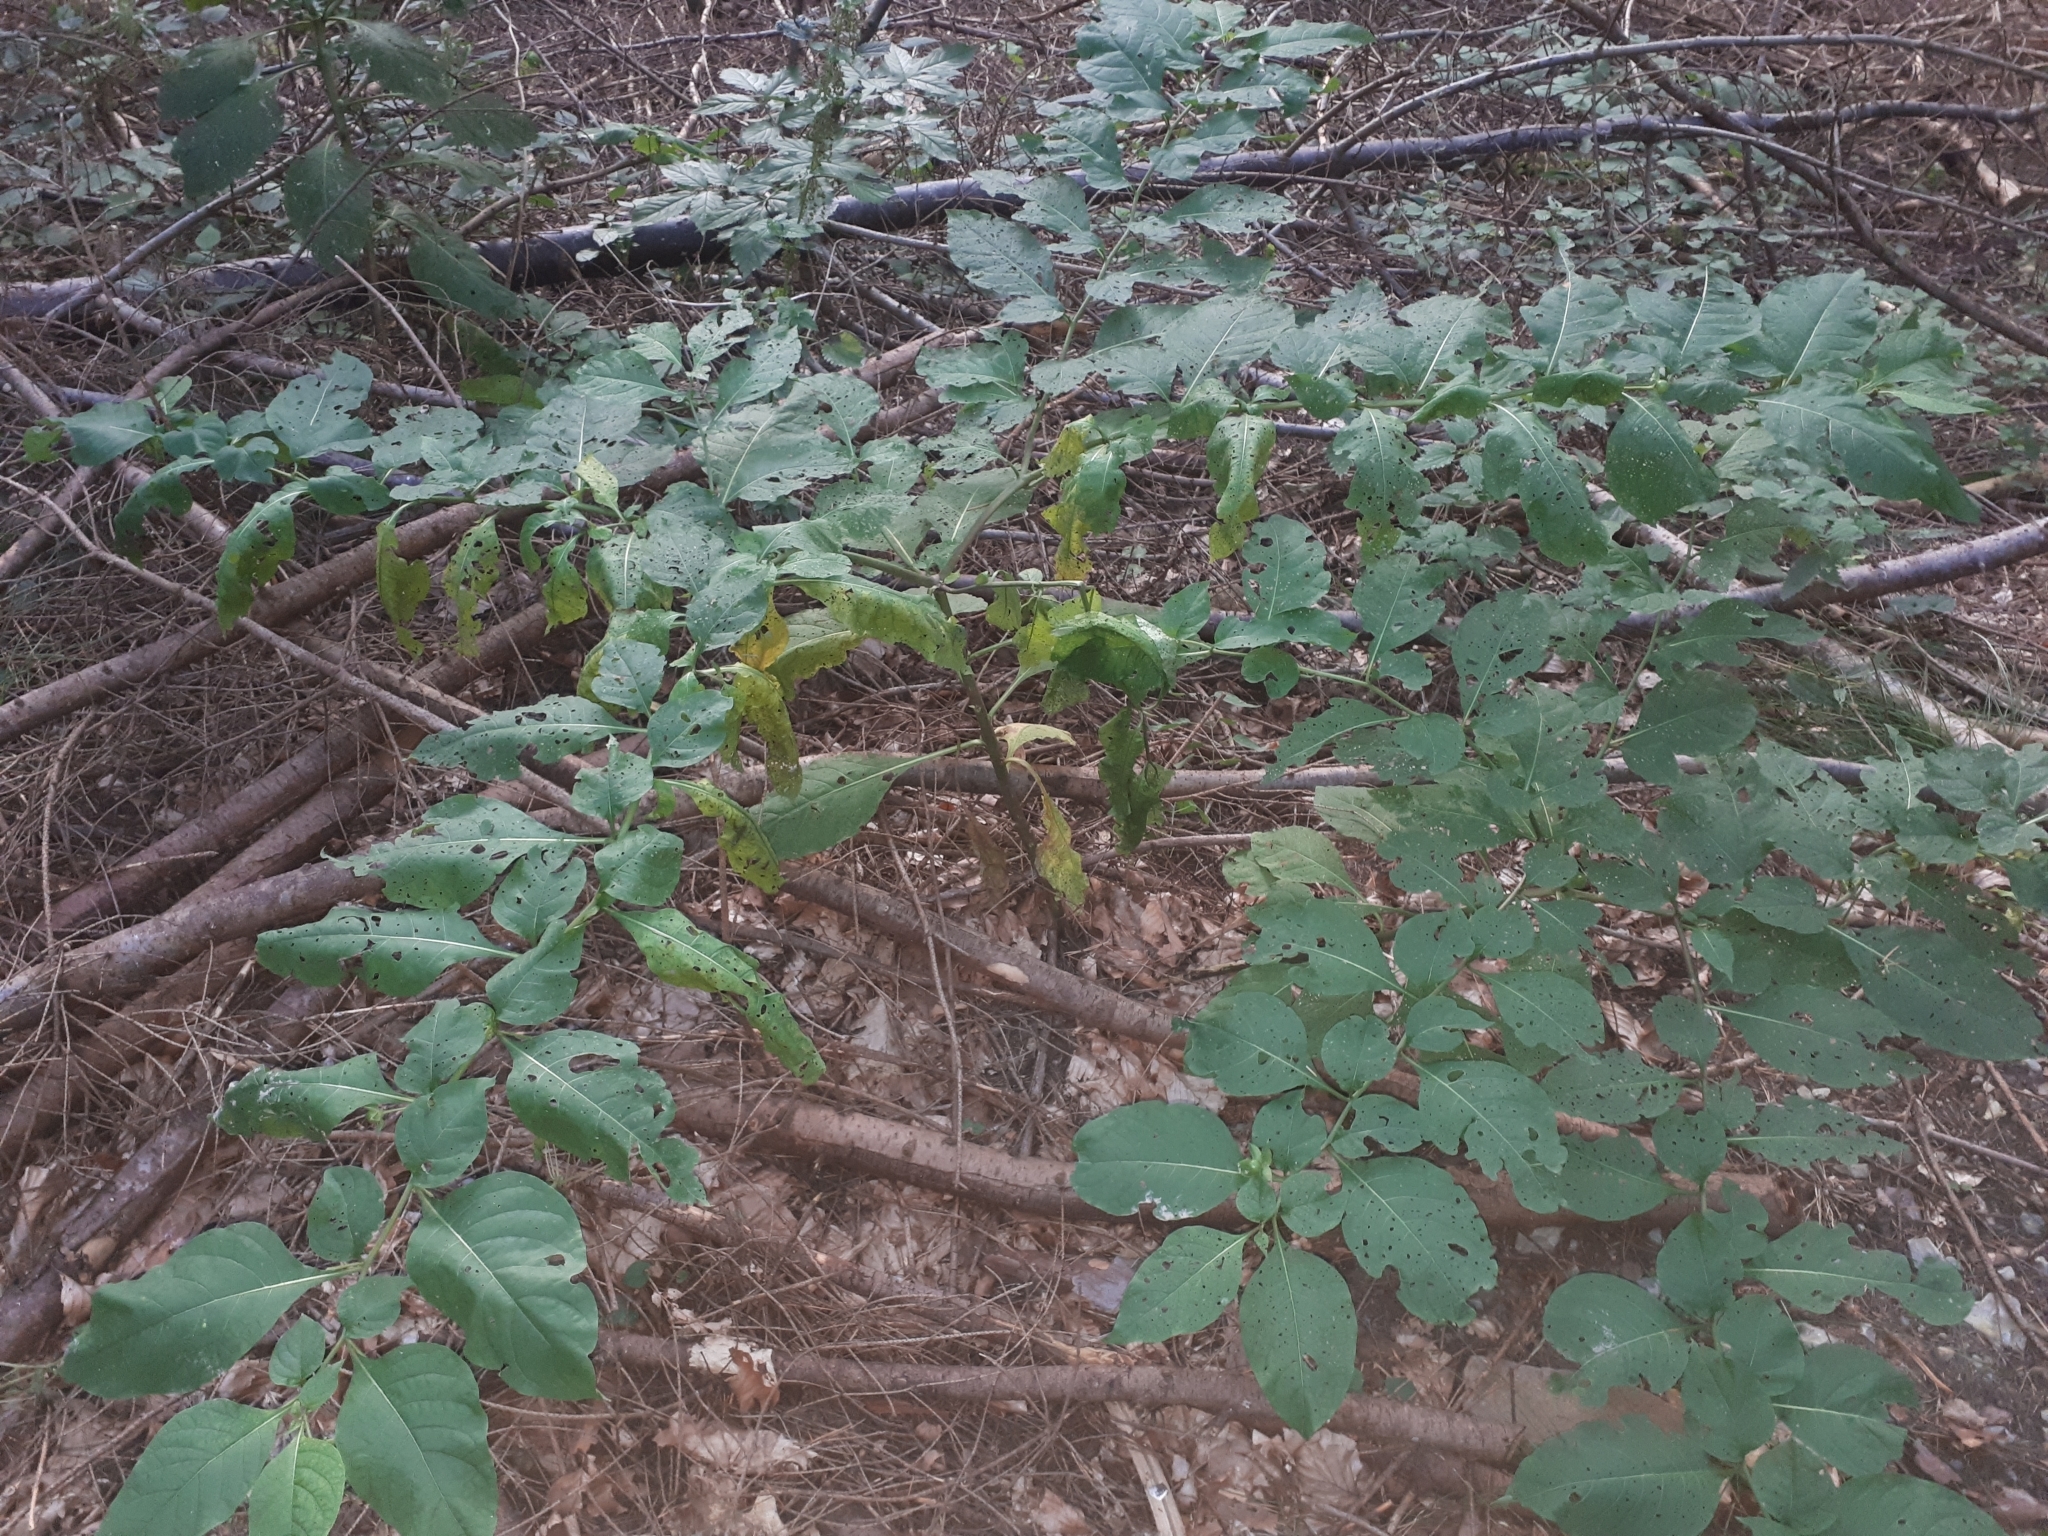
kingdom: Plantae
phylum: Tracheophyta
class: Magnoliopsida
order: Solanales
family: Solanaceae
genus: Atropa
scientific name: Atropa belladonna
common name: Deadly nightshade
